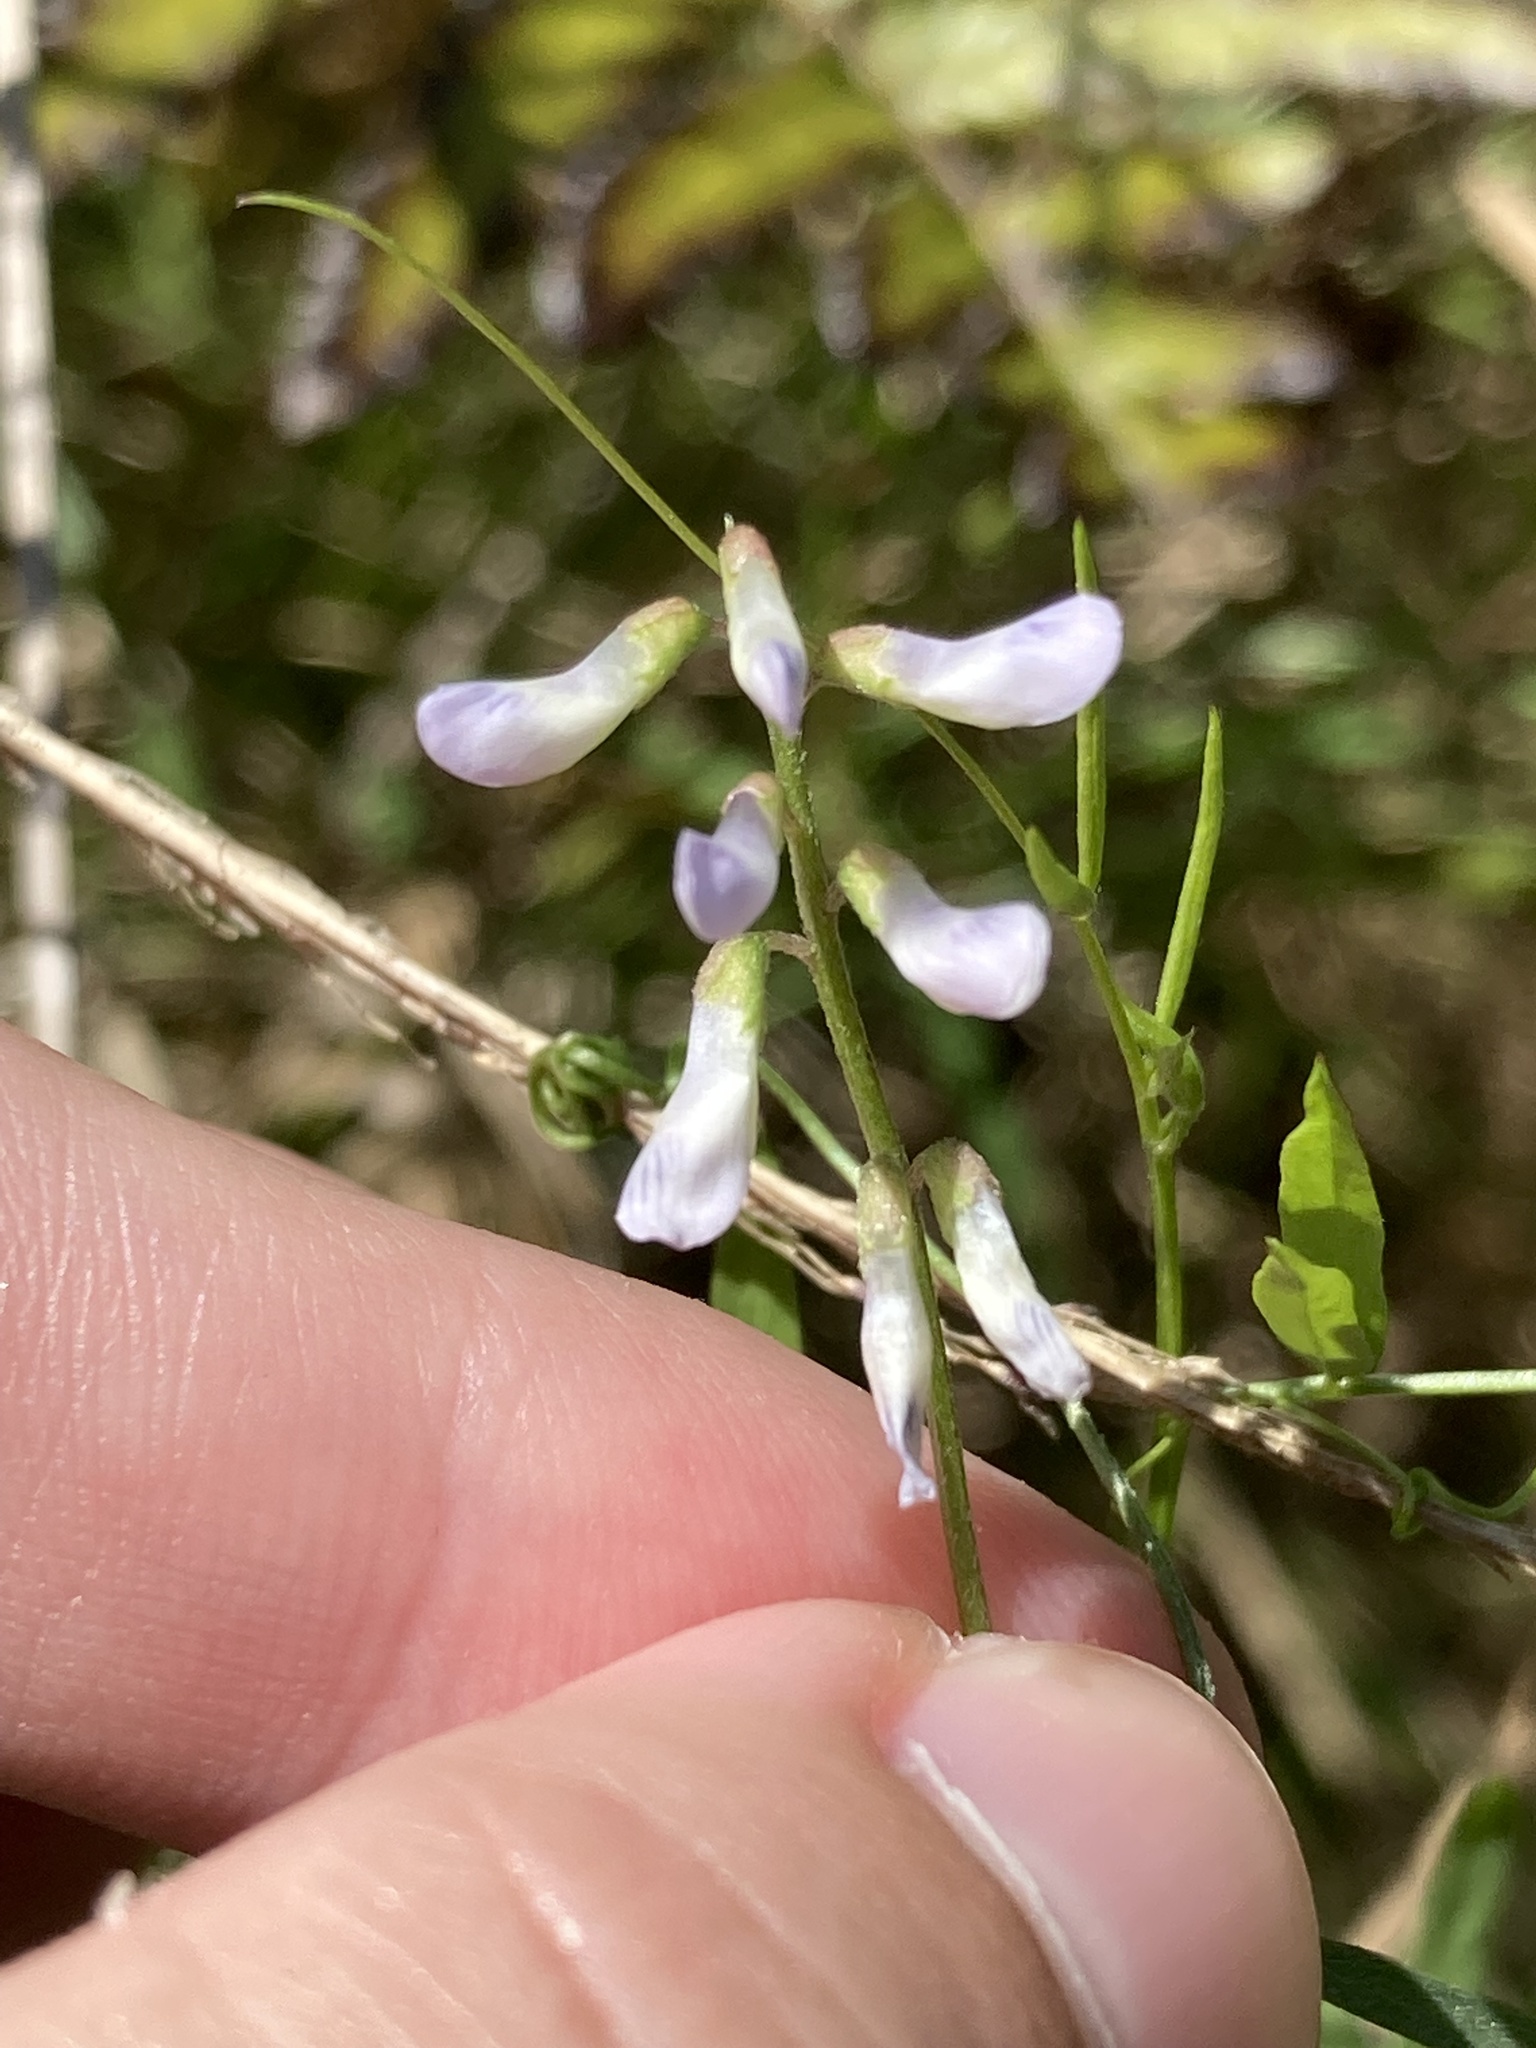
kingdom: Plantae
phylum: Tracheophyta
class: Magnoliopsida
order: Fabales
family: Fabaceae
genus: Vicia
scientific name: Vicia acutifolia
